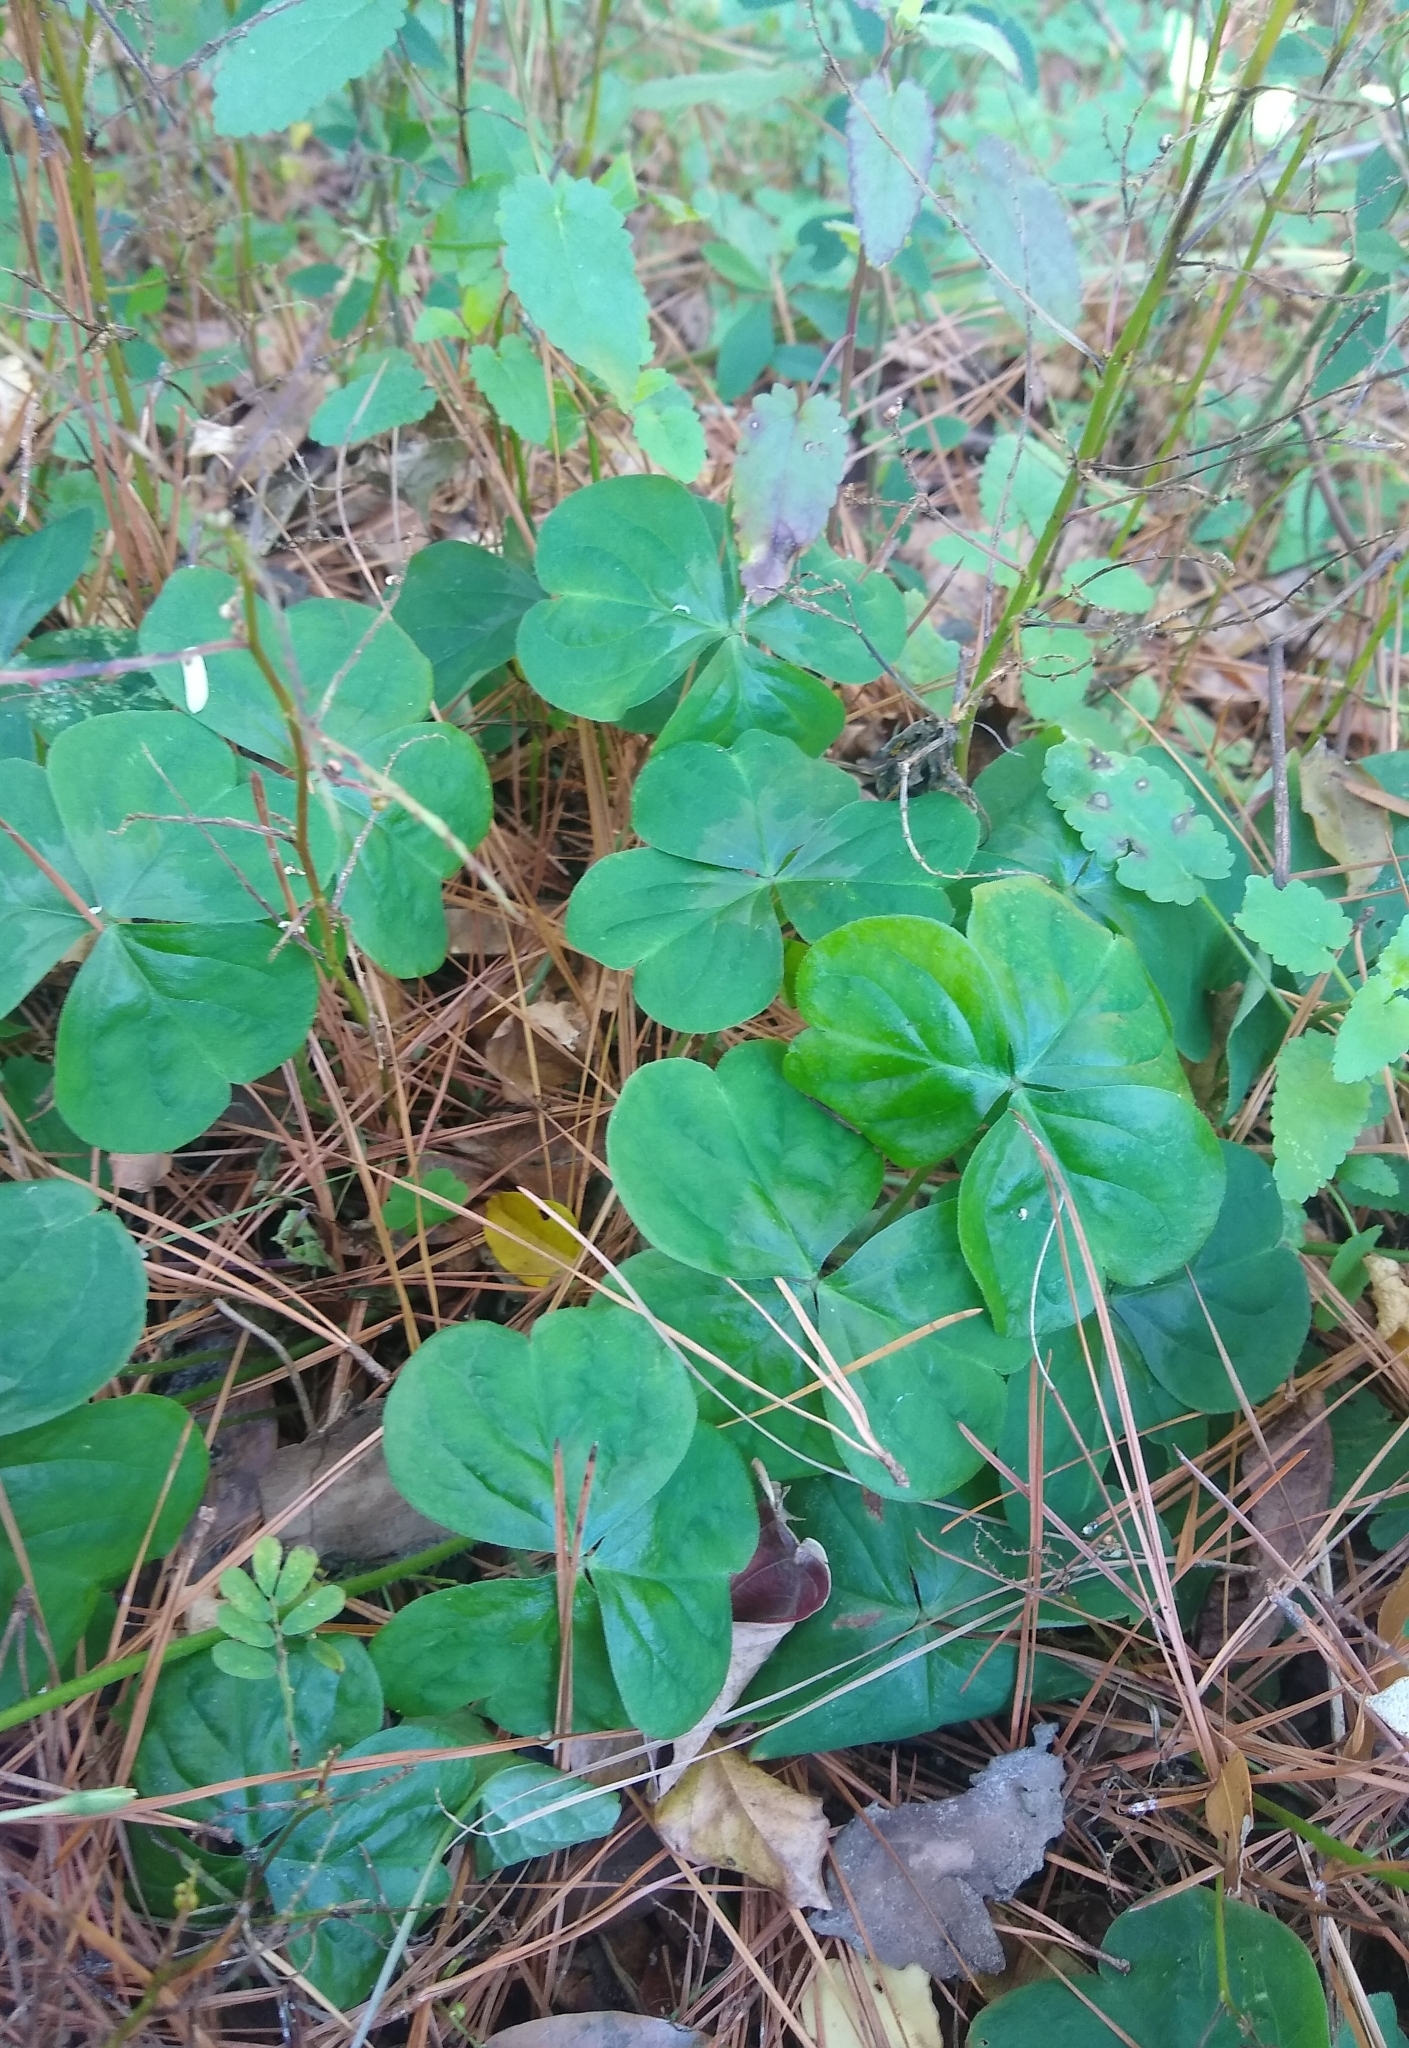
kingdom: Plantae
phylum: Tracheophyta
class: Magnoliopsida
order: Oxalidales
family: Oxalidaceae
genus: Oxalis
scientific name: Oxalis debilis
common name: Large-flowered pink-sorrel
